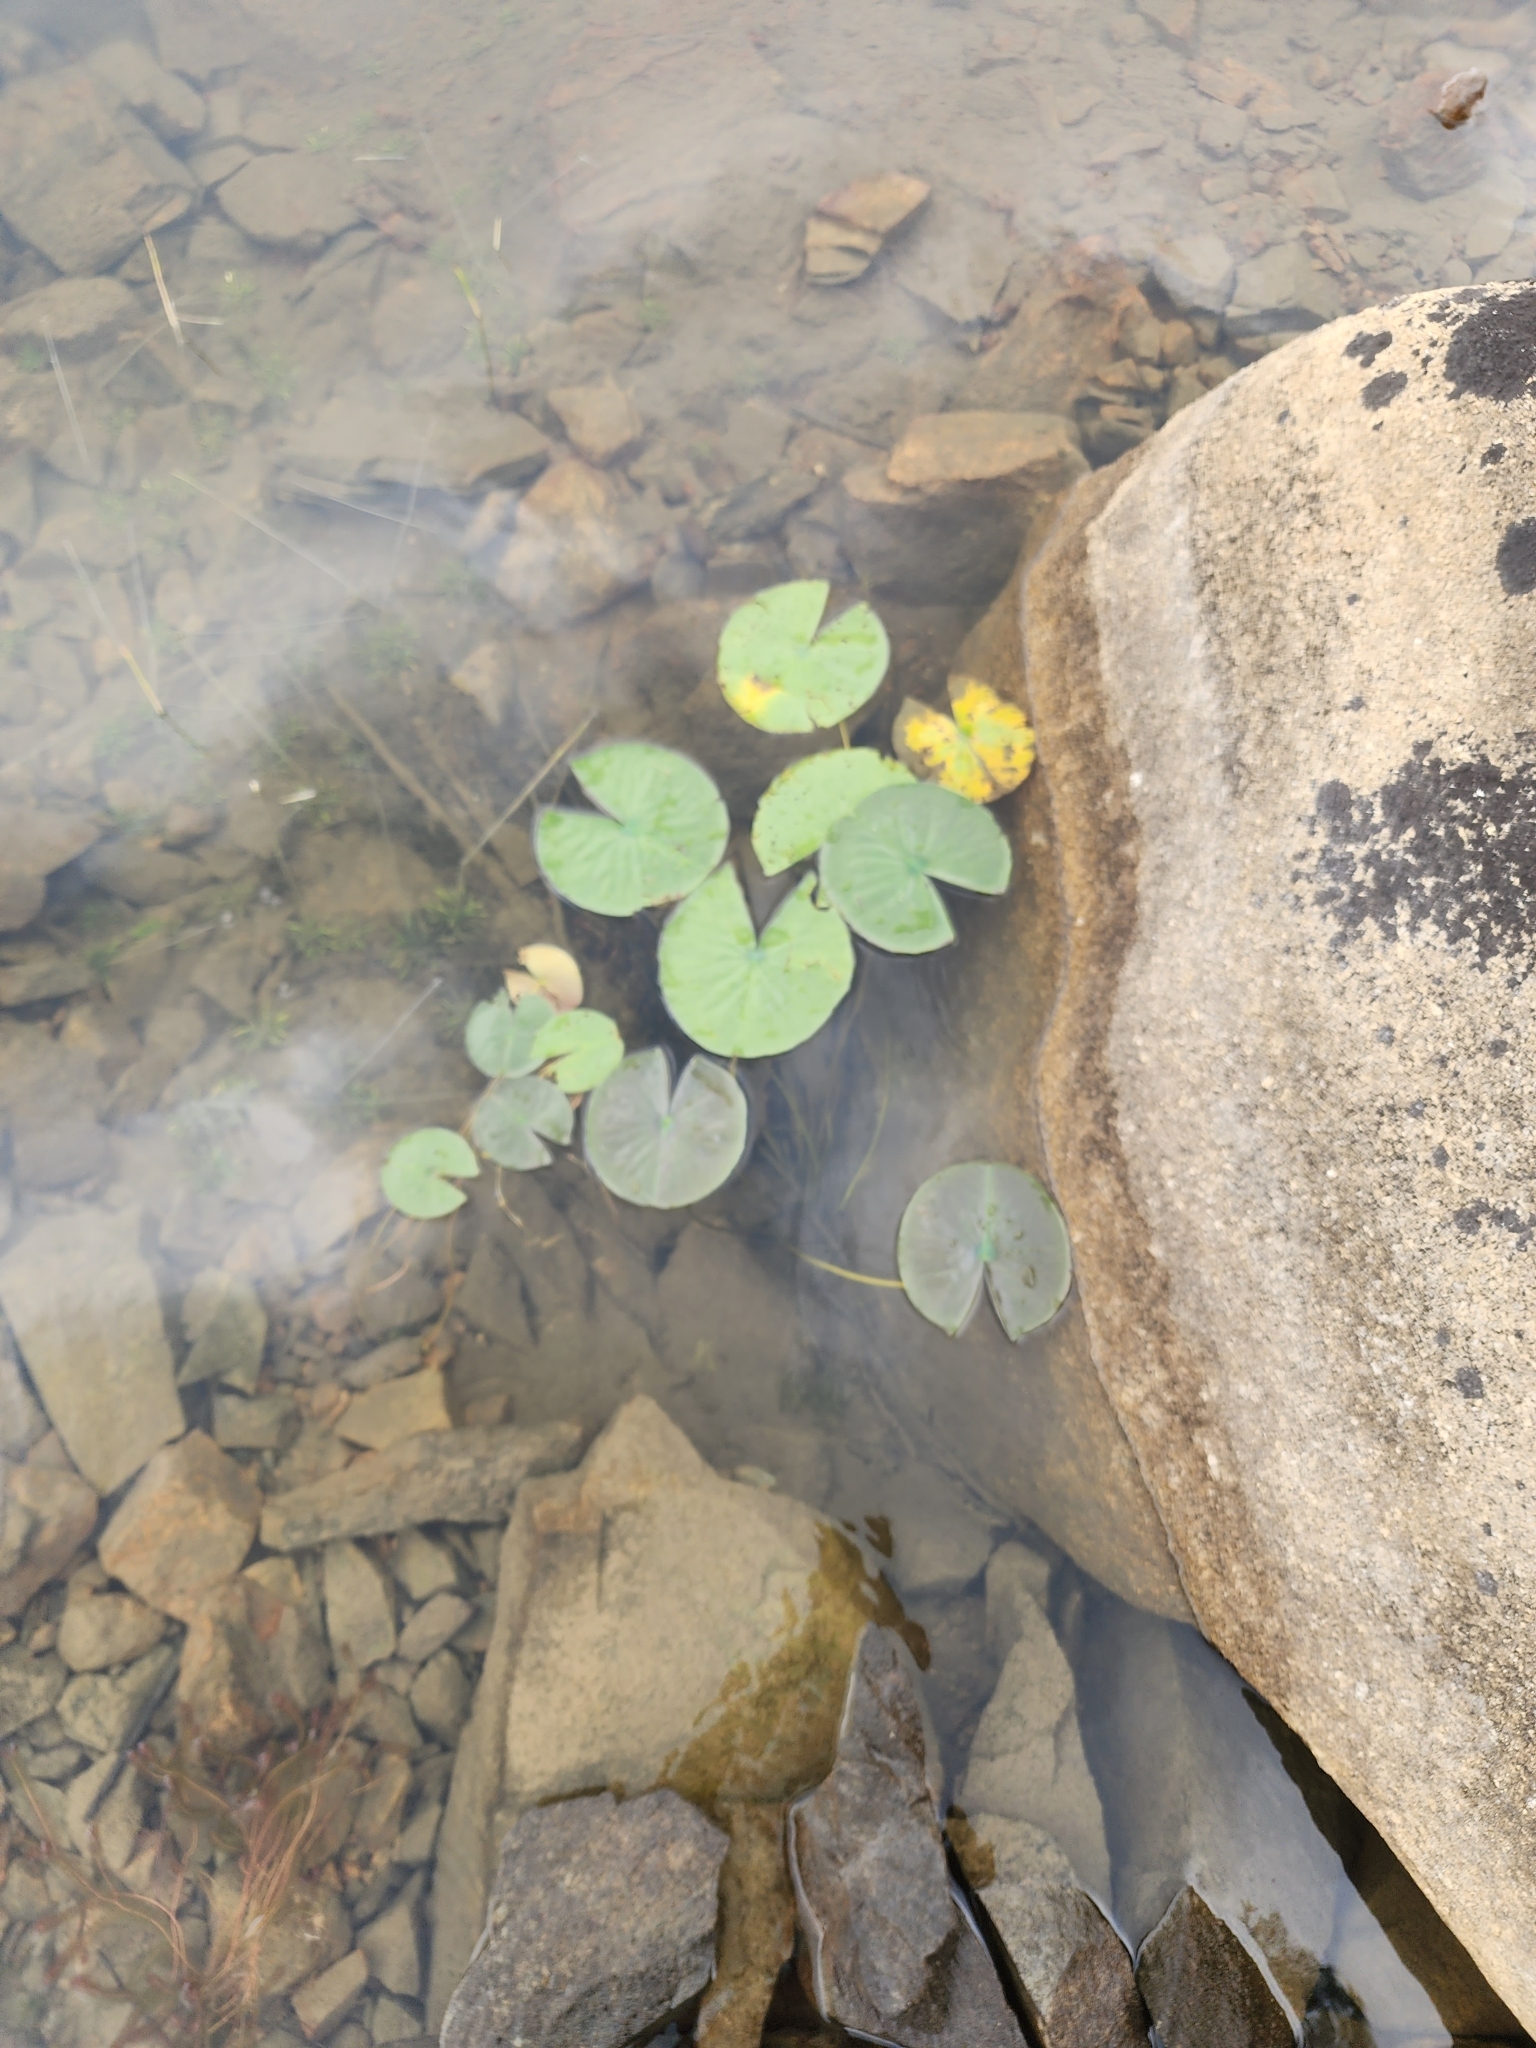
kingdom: Plantae
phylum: Tracheophyta
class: Magnoliopsida
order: Nymphaeales
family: Nymphaeaceae
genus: Nymphaea
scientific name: Nymphaea odorata
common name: Fragrant water-lily
